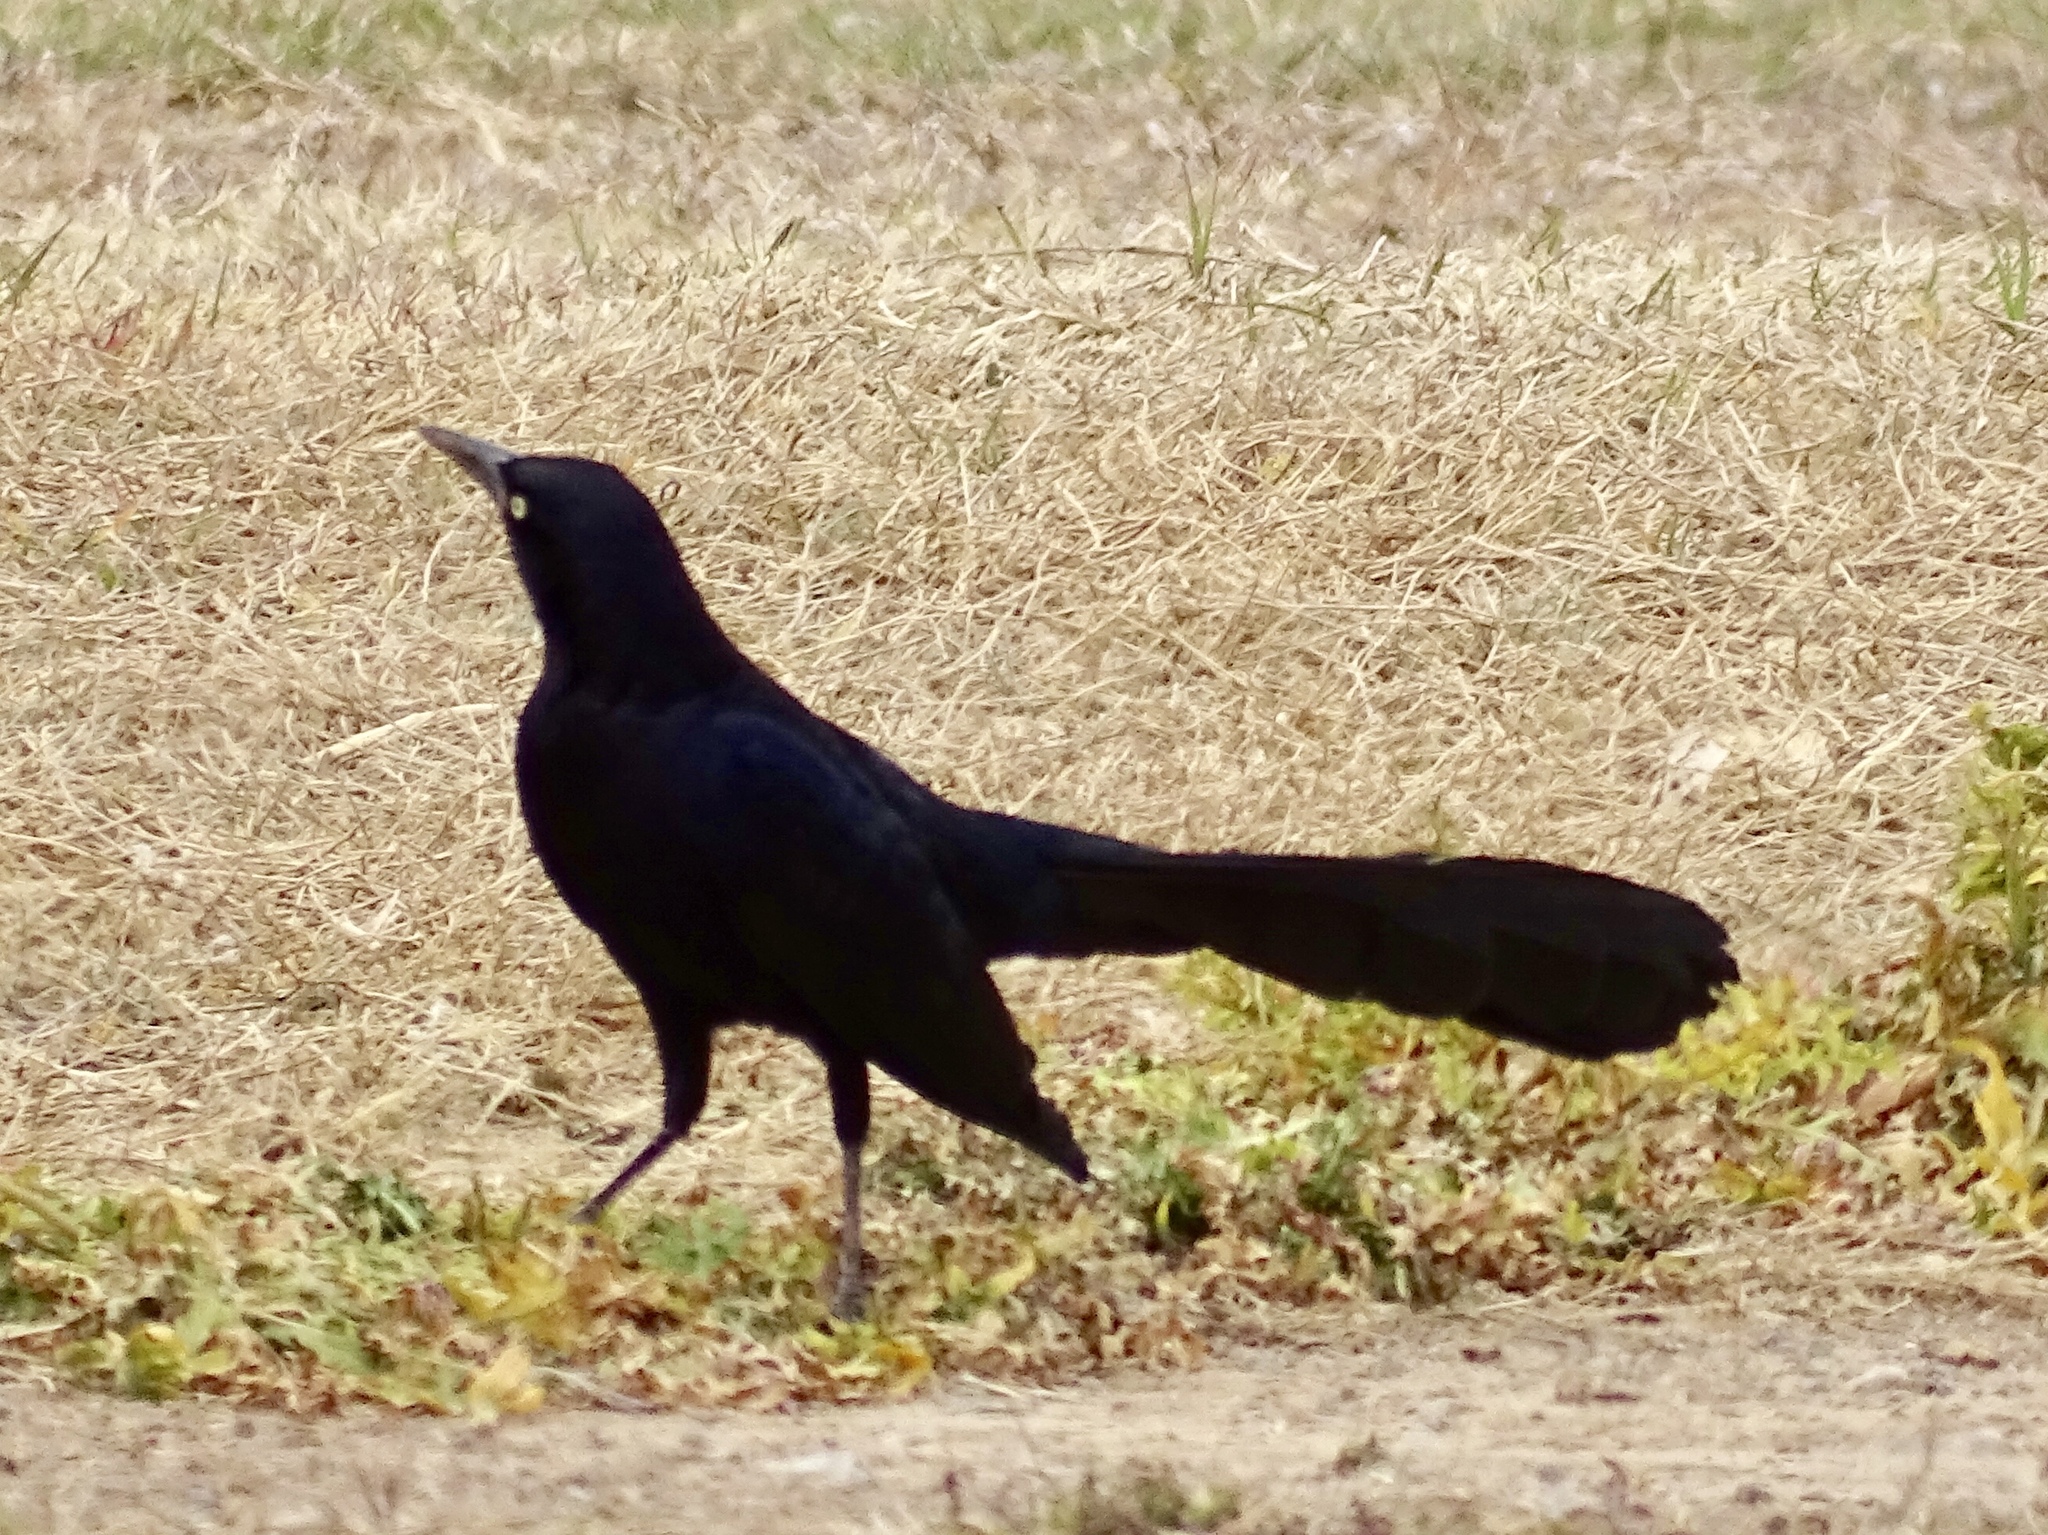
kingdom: Animalia
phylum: Chordata
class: Aves
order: Passeriformes
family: Icteridae
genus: Quiscalus
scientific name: Quiscalus mexicanus
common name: Great-tailed grackle
